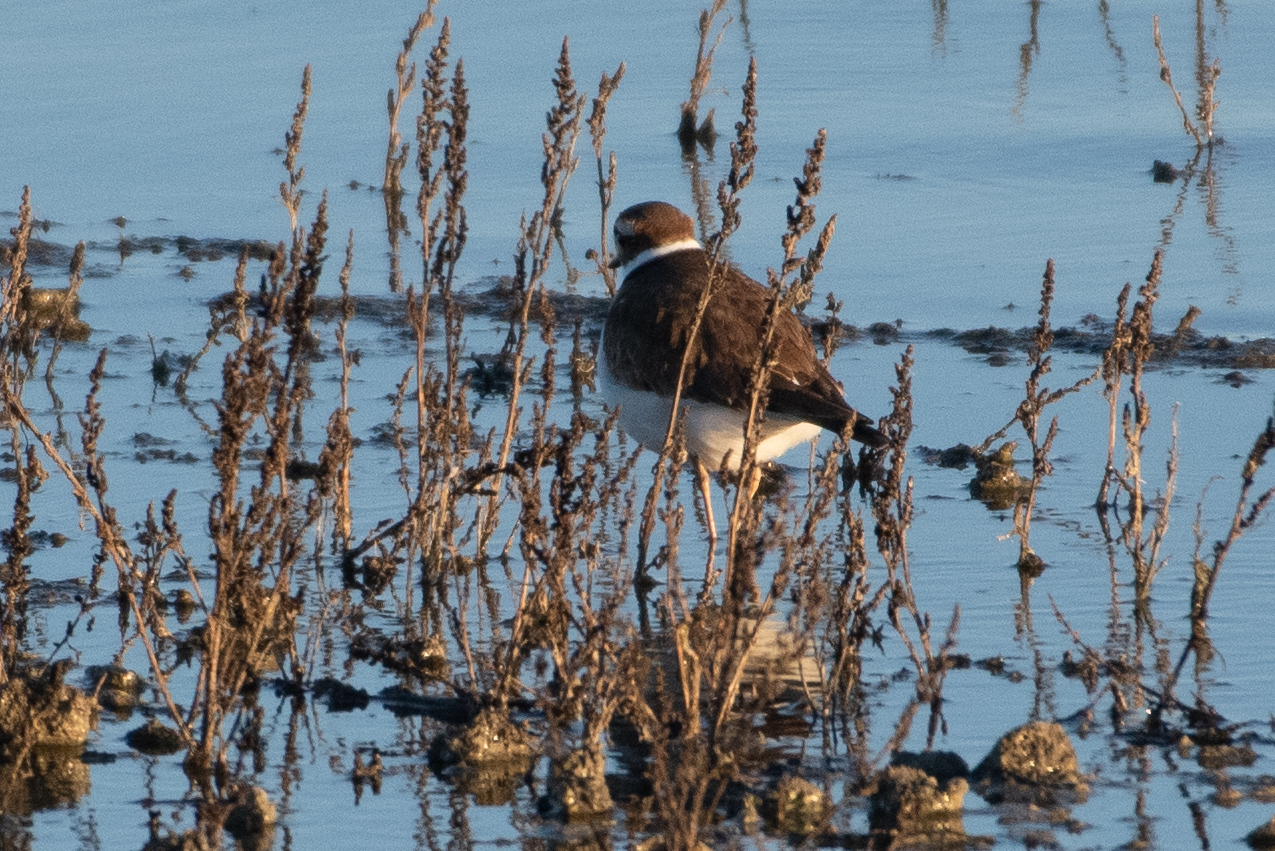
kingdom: Animalia
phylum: Chordata
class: Aves
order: Charadriiformes
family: Charadriidae
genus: Charadrius
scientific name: Charadrius vociferus
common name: Killdeer
